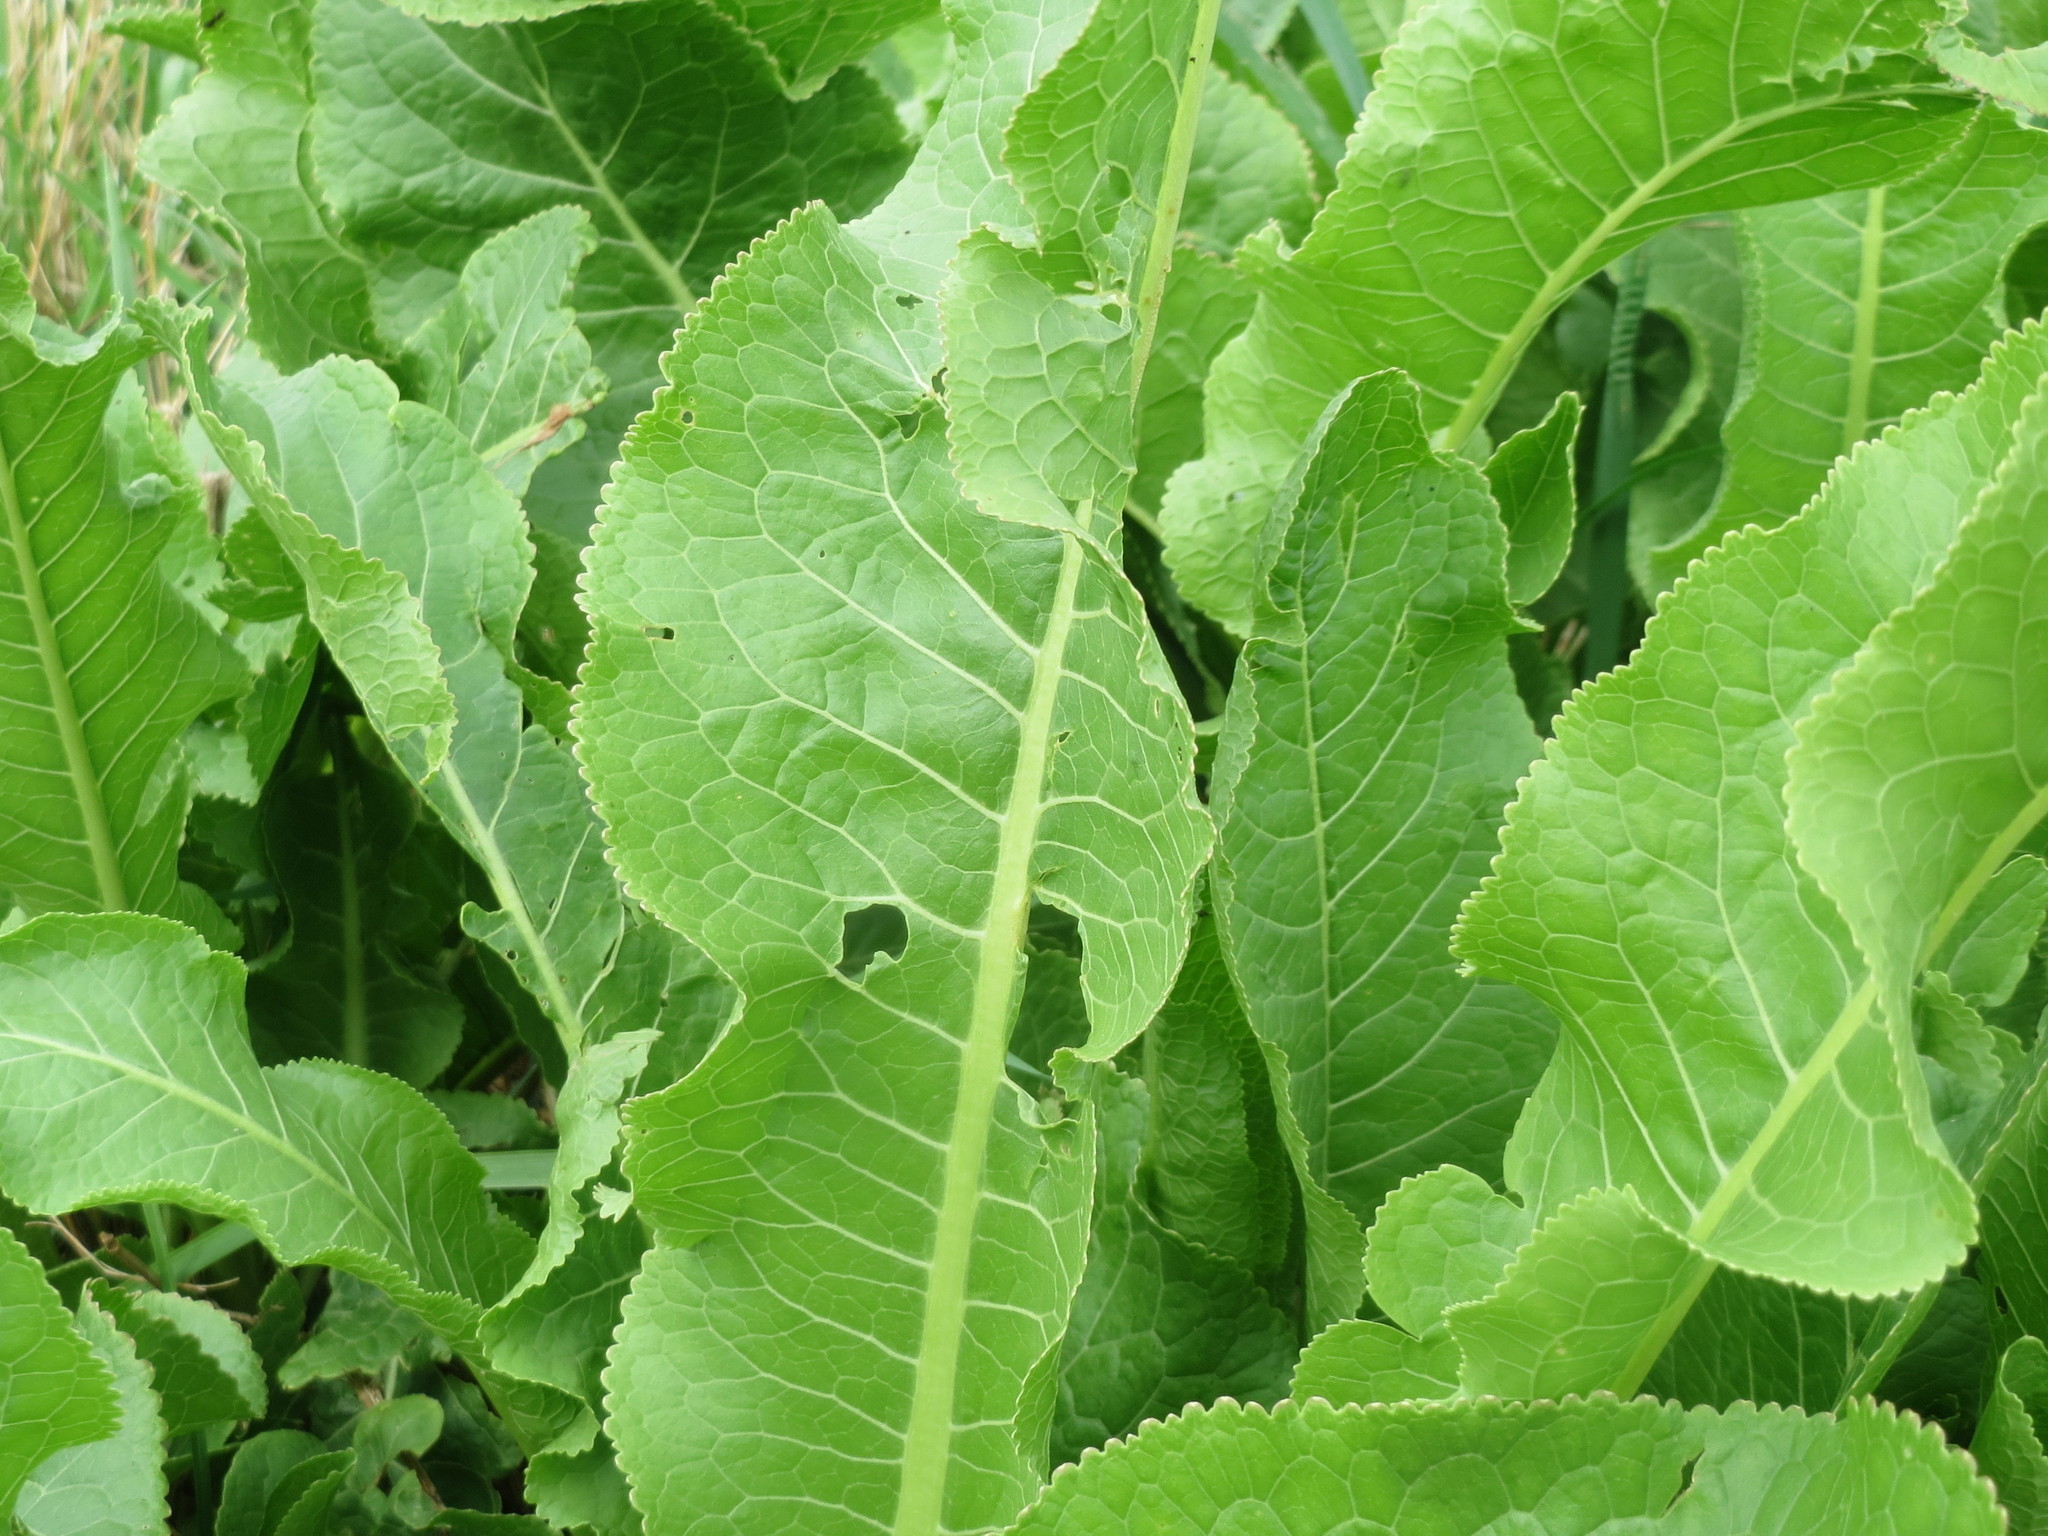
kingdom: Plantae
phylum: Tracheophyta
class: Magnoliopsida
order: Brassicales
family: Brassicaceae
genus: Armoracia
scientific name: Armoracia rusticana
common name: Horseradish
